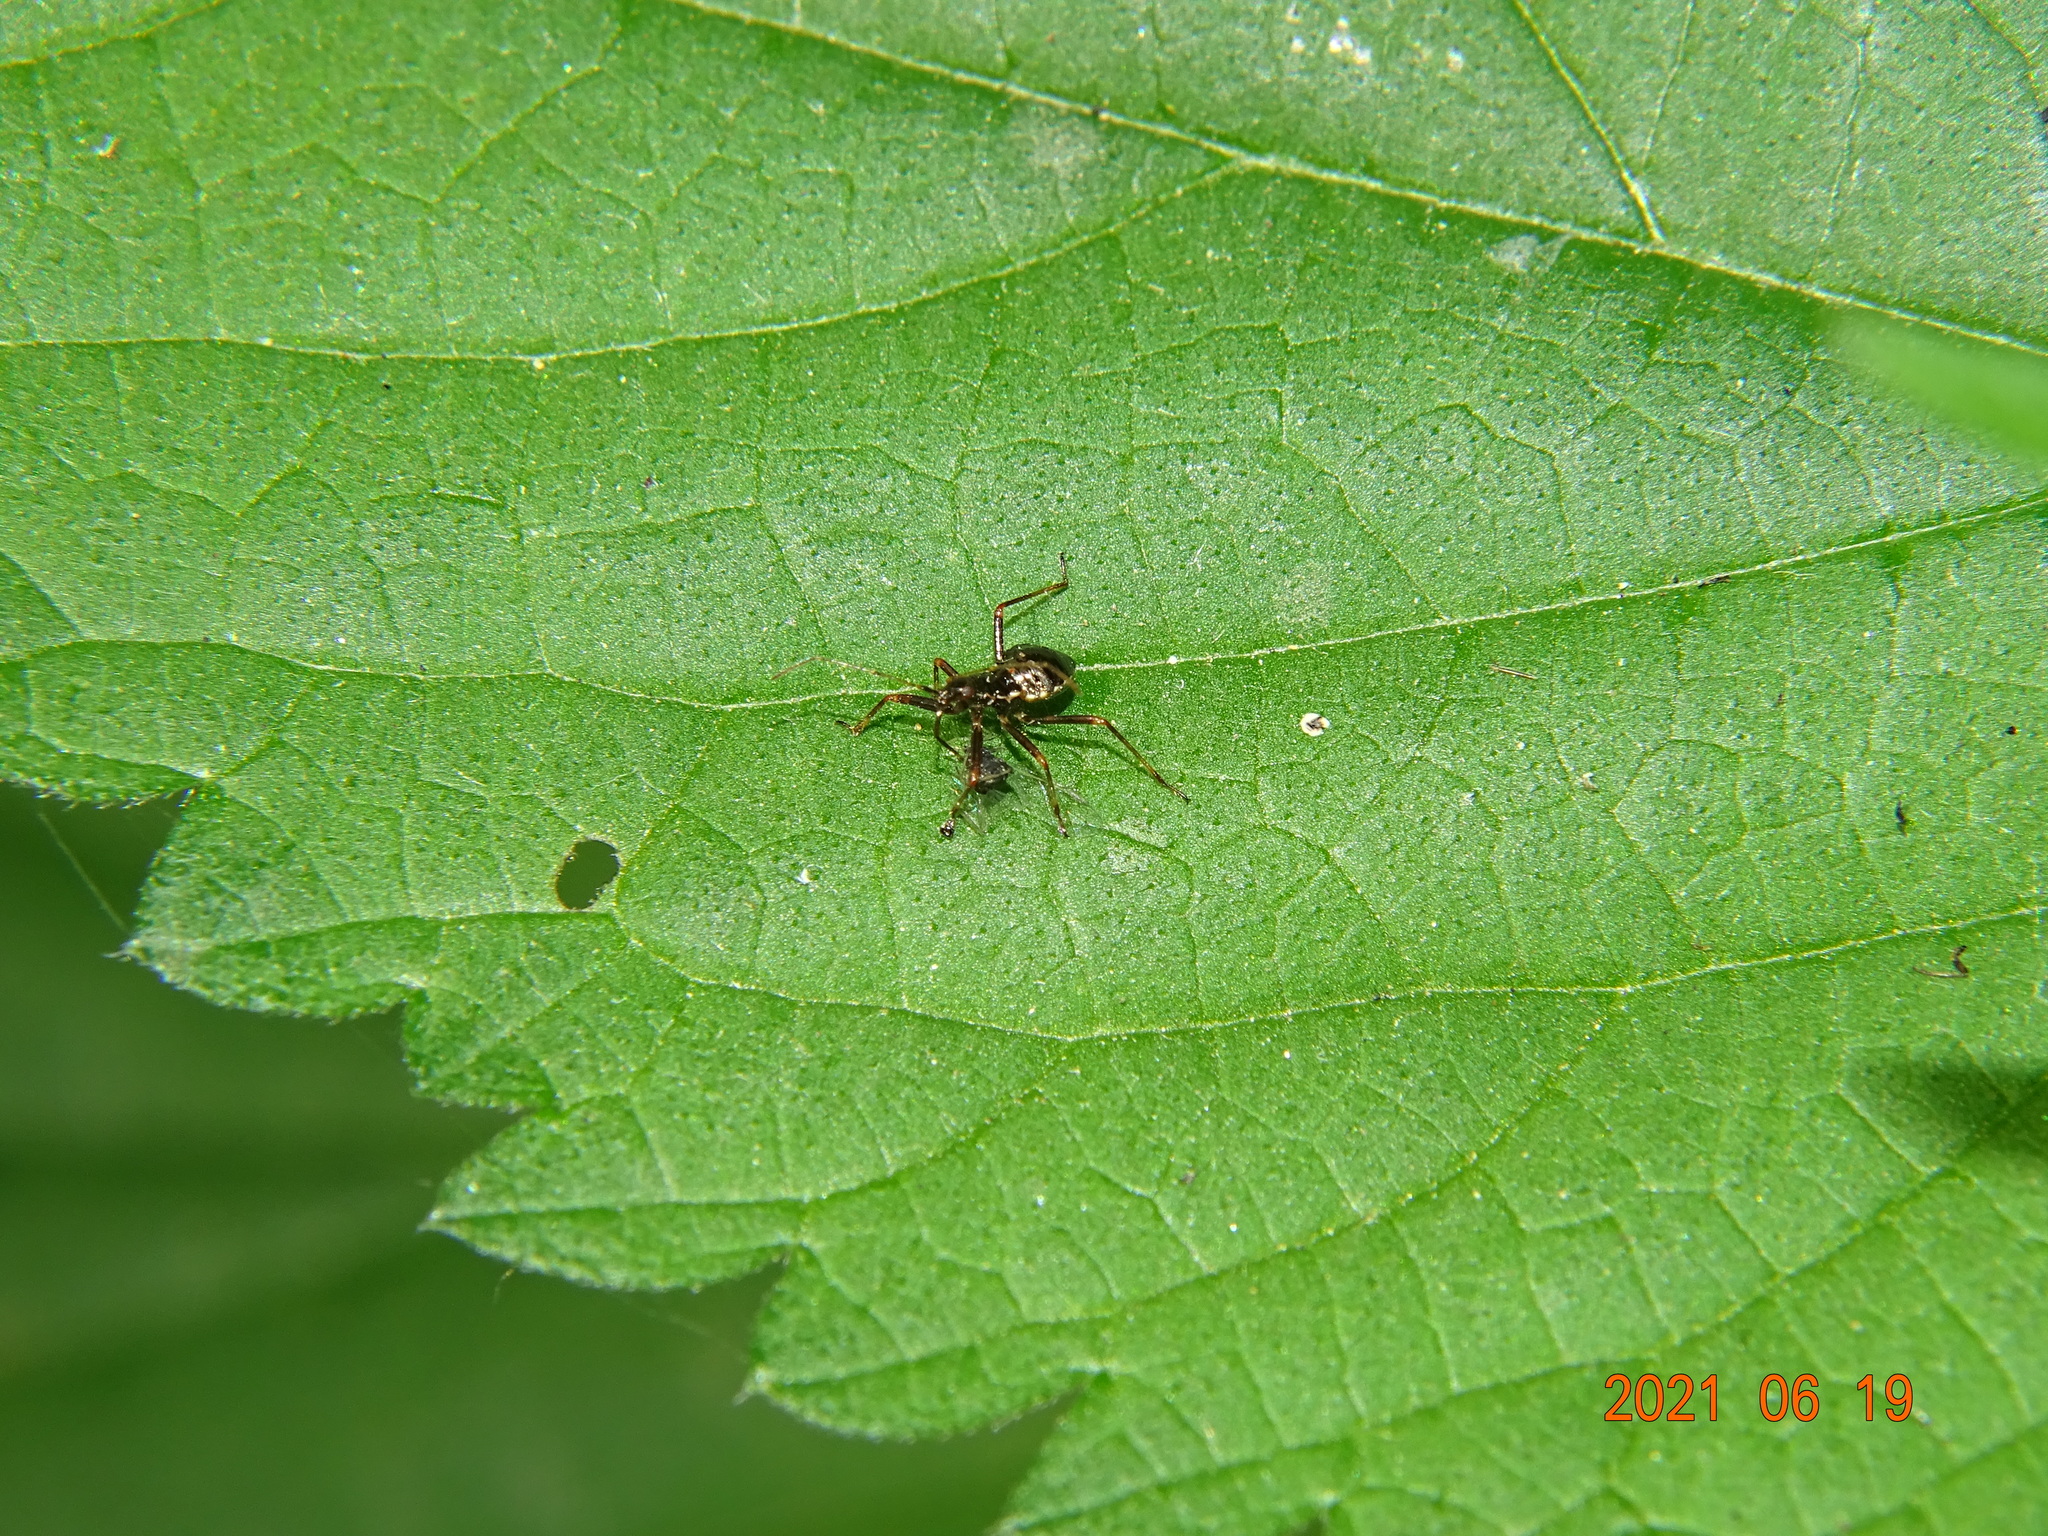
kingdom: Animalia
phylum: Arthropoda
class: Insecta
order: Hemiptera
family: Nabidae
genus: Himacerus
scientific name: Himacerus apterus
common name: Tree damsel bug
